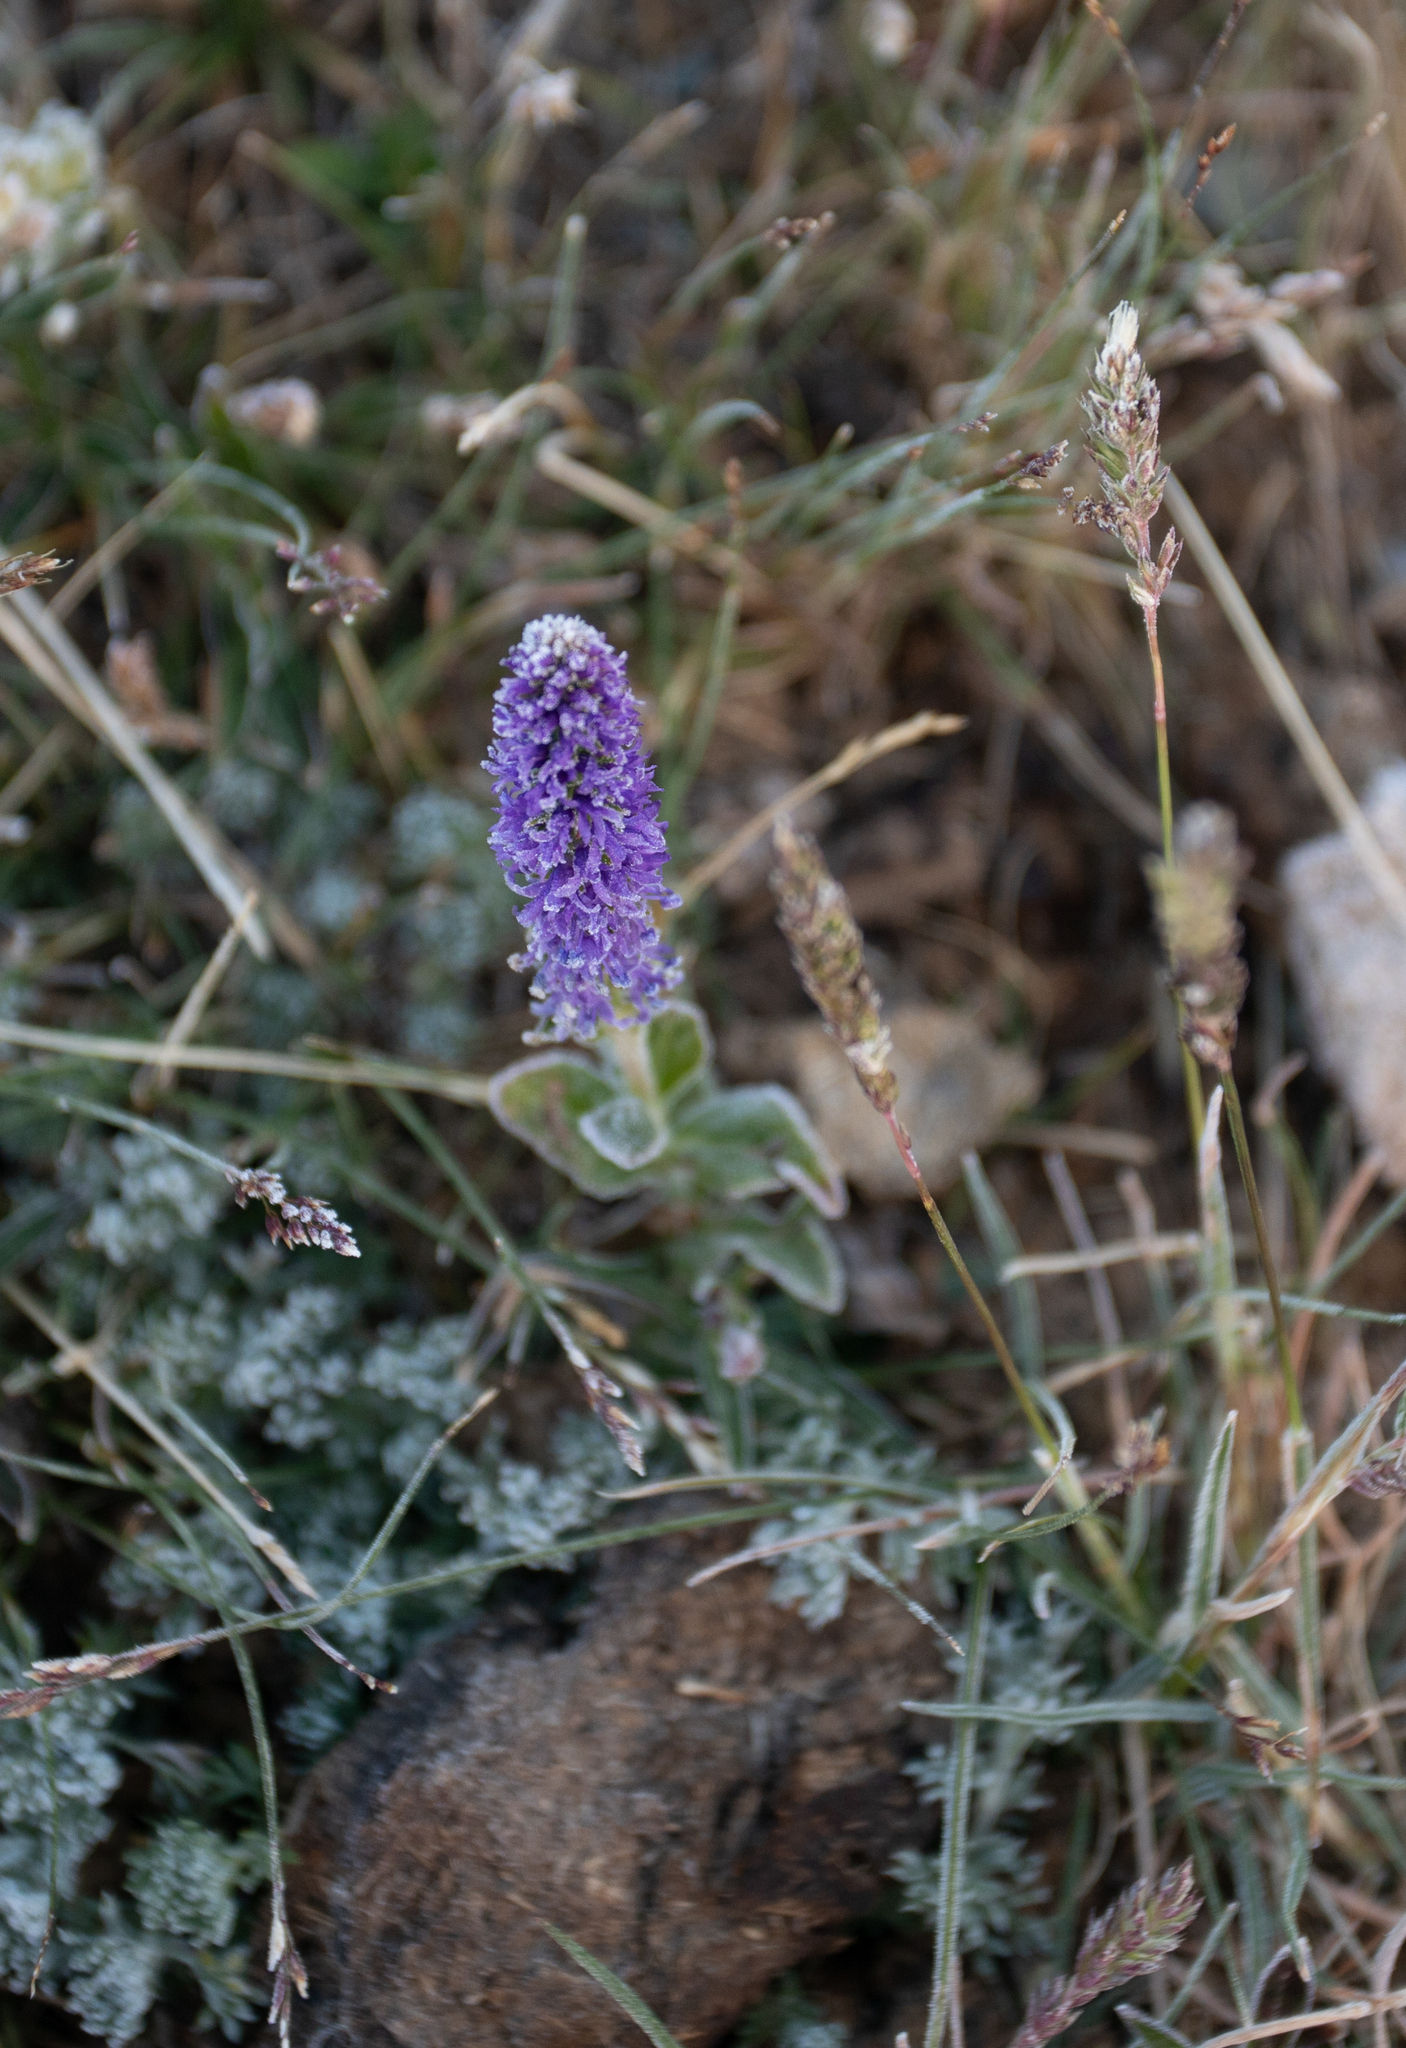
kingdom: Plantae
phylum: Tracheophyta
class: Magnoliopsida
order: Lamiales
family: Plantaginaceae
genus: Veronica
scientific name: Veronica porphyriana
